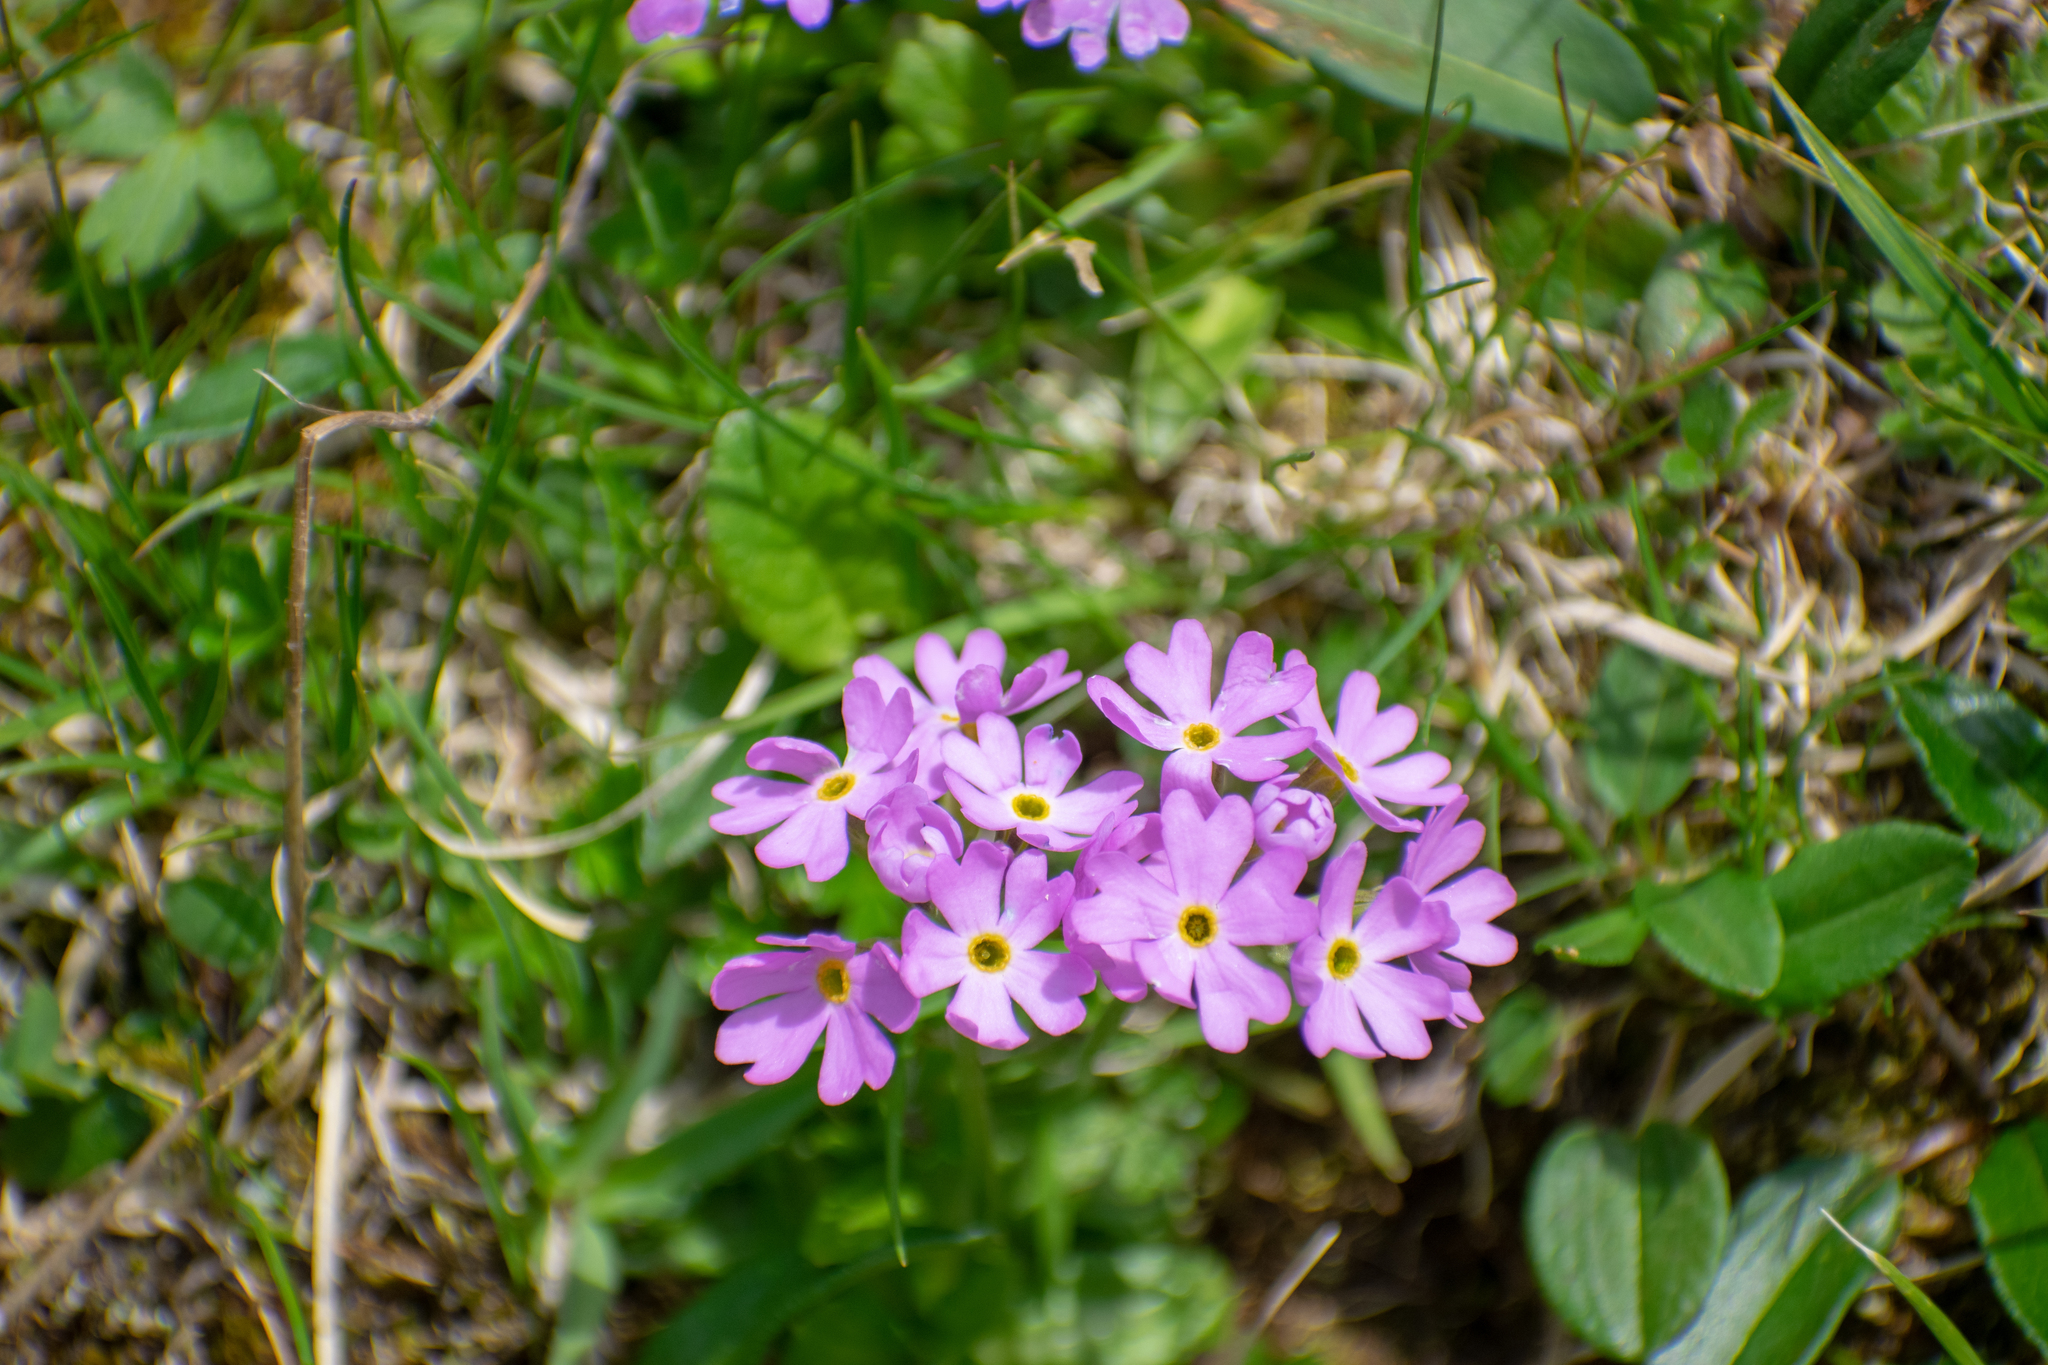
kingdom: Plantae
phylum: Tracheophyta
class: Magnoliopsida
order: Ericales
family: Primulaceae
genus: Primula
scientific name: Primula farinosa
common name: Bird's-eye primrose
